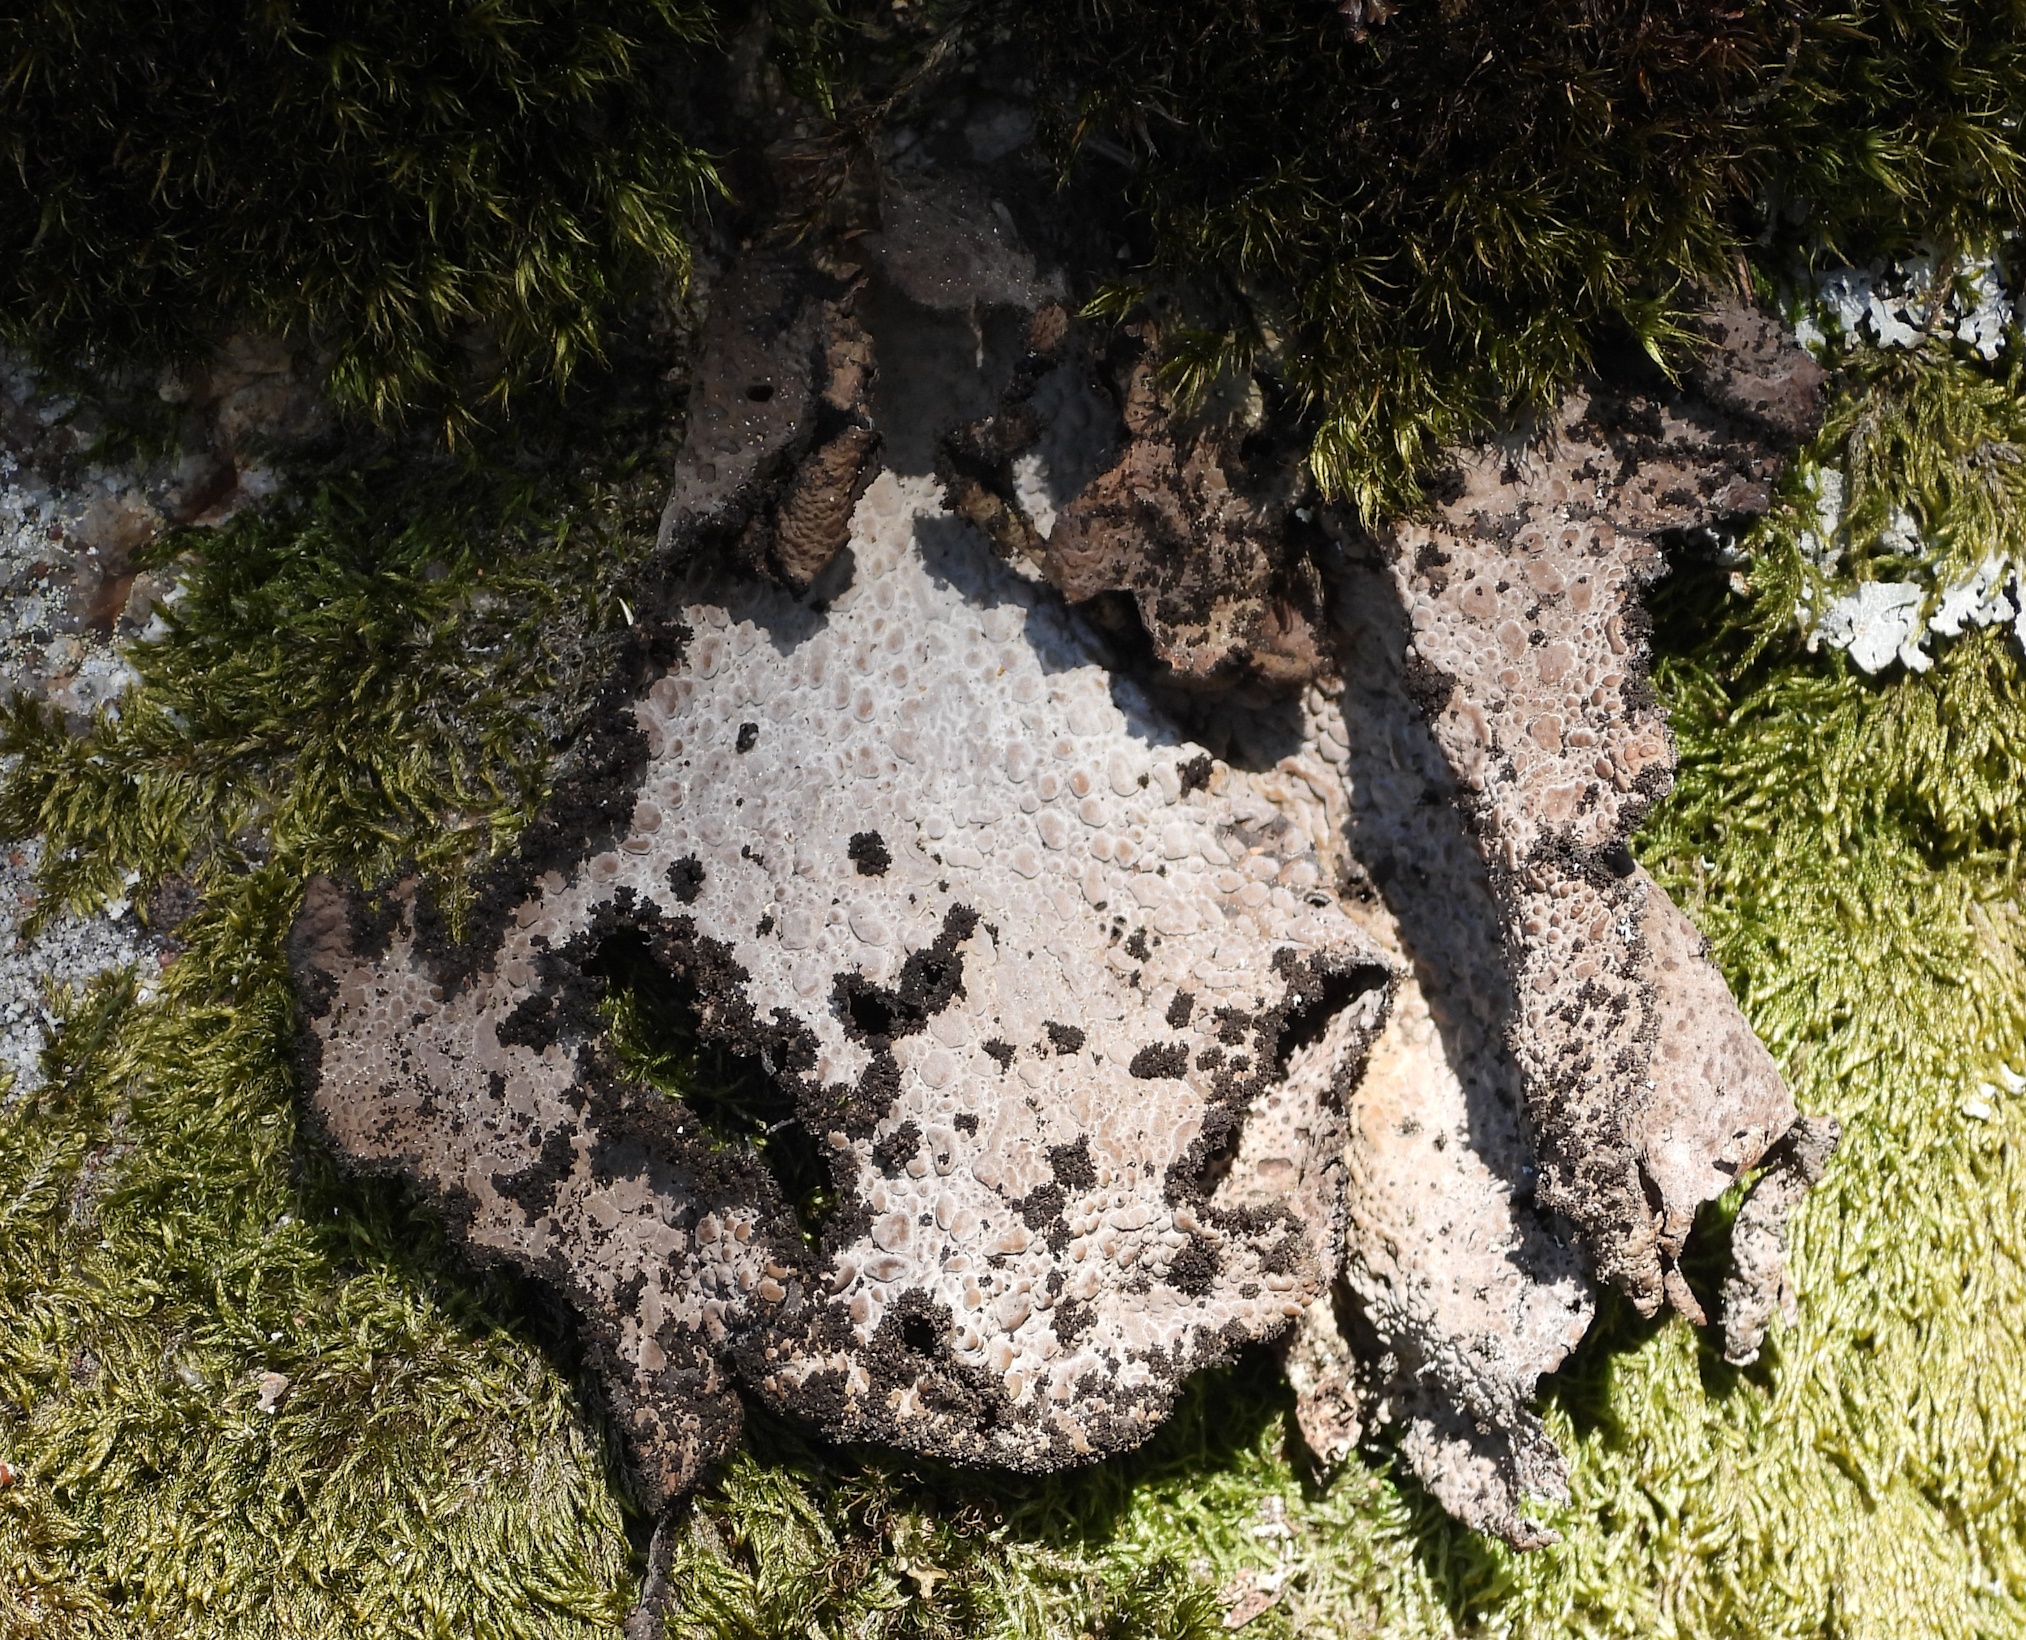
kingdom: Fungi
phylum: Ascomycota
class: Lecanoromycetes
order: Umbilicariales
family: Umbilicariaceae
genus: Lasallia
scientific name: Lasallia pustulata
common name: Blistered toadskin lichen
